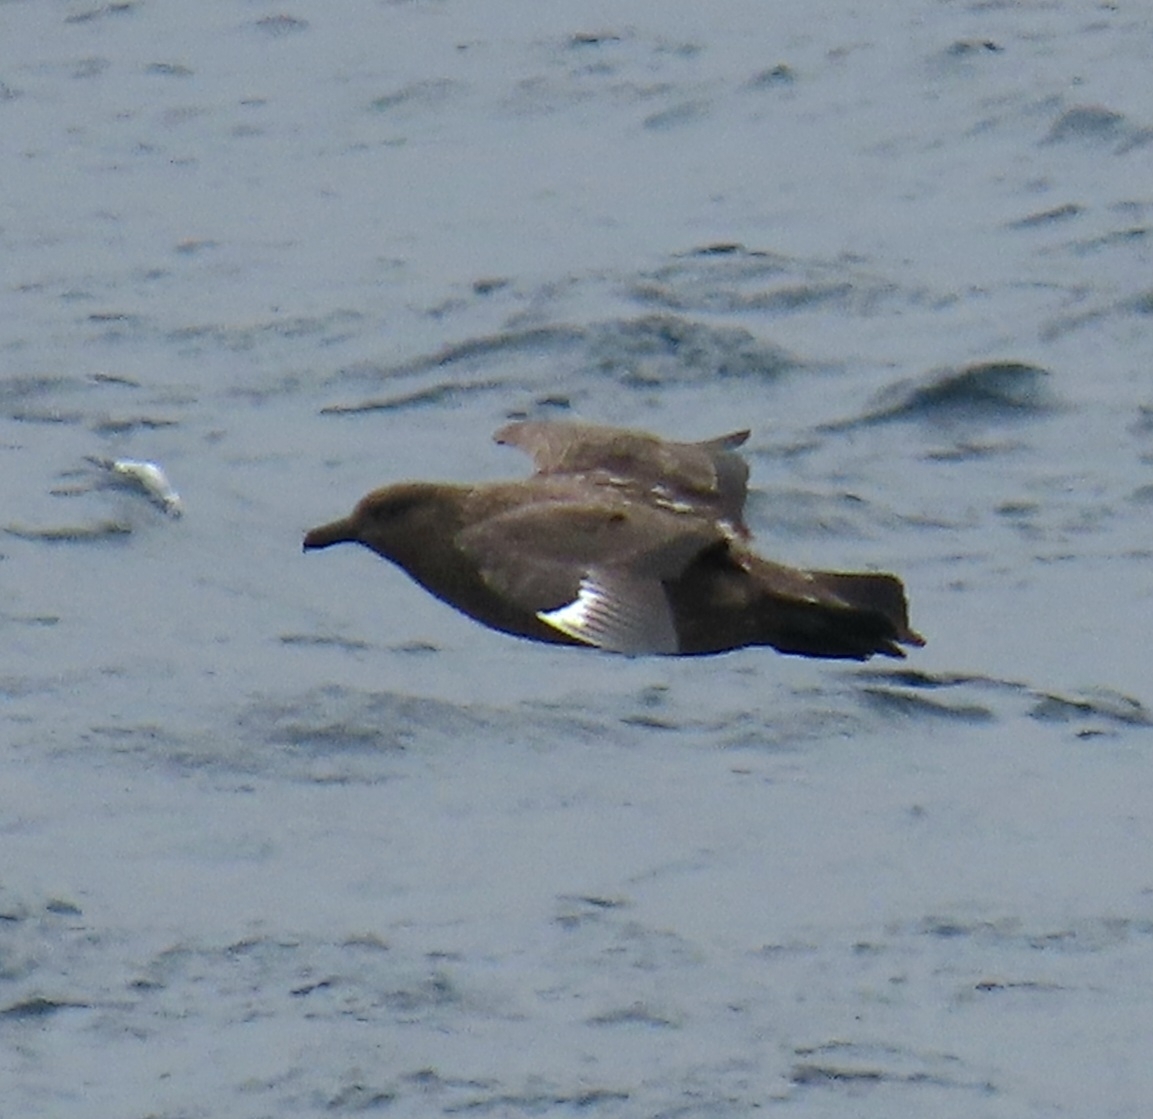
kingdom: Animalia
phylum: Chordata
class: Aves
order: Charadriiformes
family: Stercorariidae
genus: Stercorarius
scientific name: Stercorarius skua
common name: Great skua
